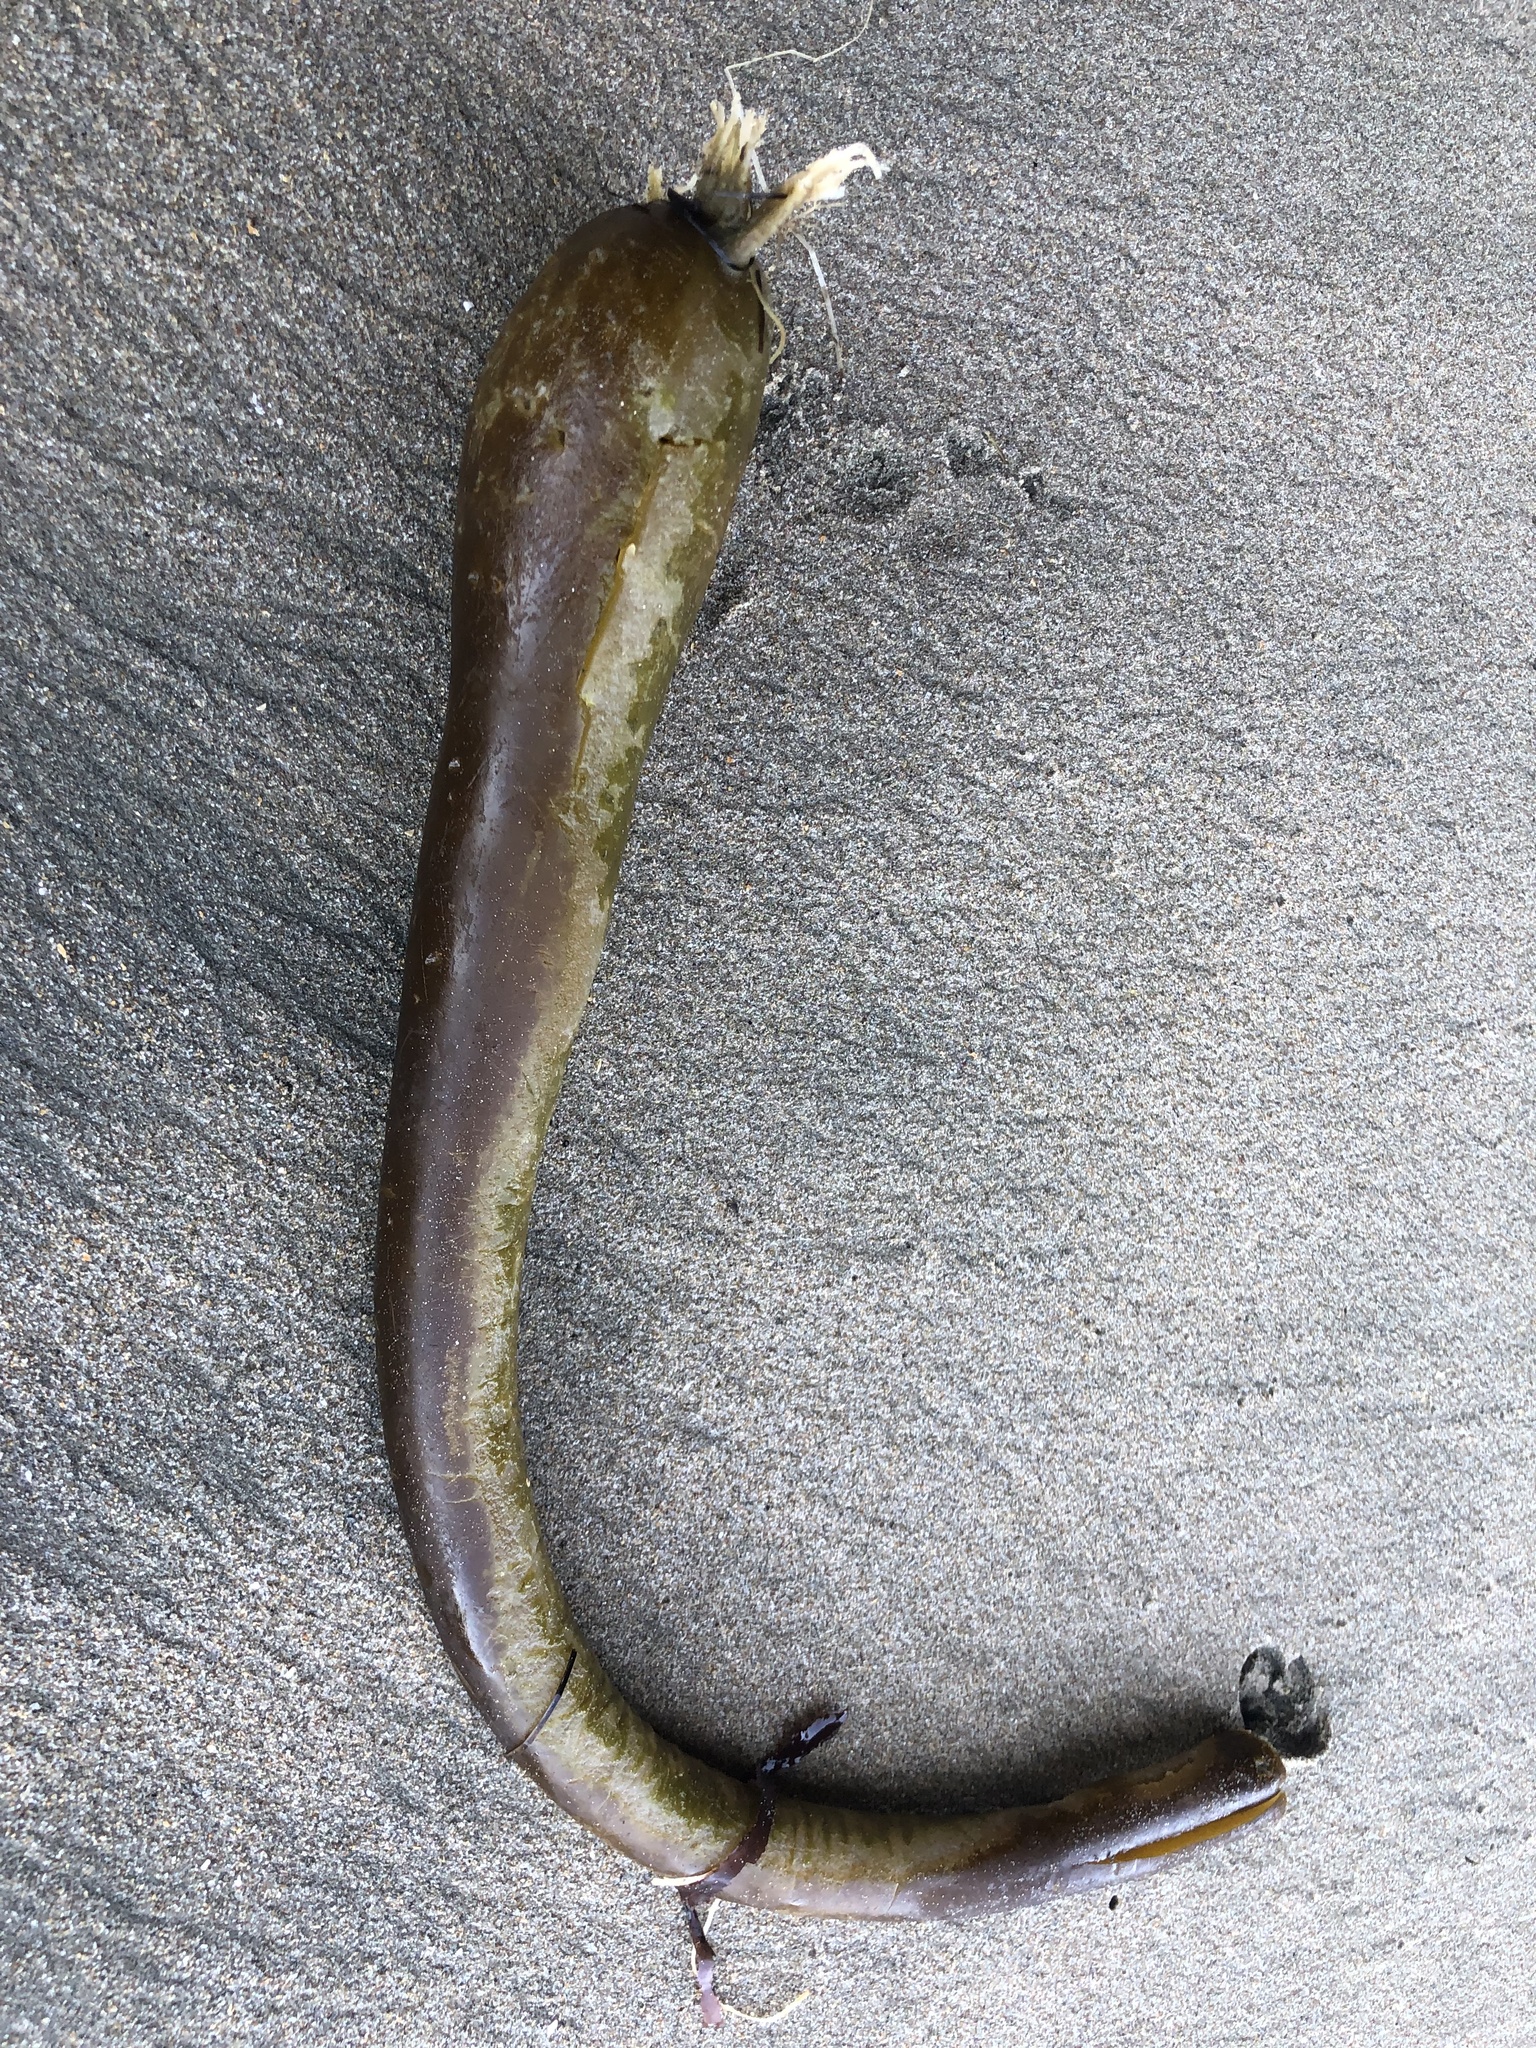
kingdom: Chromista
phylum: Ochrophyta
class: Phaeophyceae
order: Laminariales
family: Laminariaceae
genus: Nereocystis
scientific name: Nereocystis luetkeana
